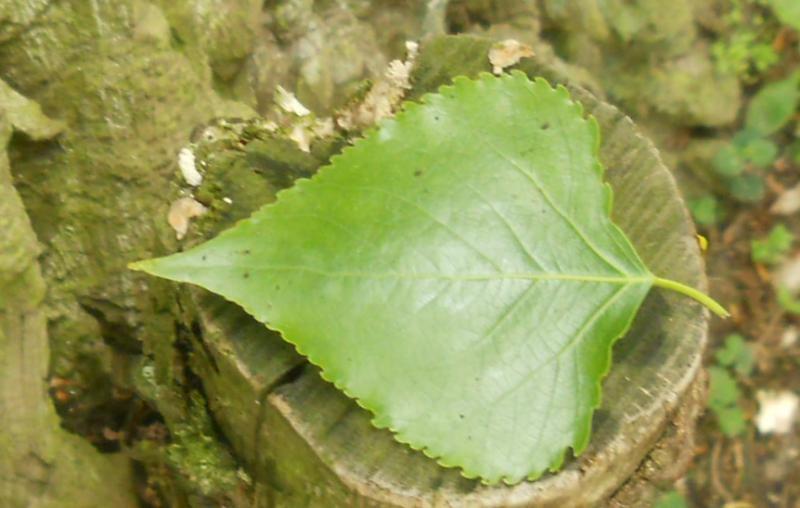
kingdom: Plantae
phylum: Tracheophyta
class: Magnoliopsida
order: Malpighiales
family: Salicaceae
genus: Populus
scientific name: Populus canadensis
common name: Carolina poplar
